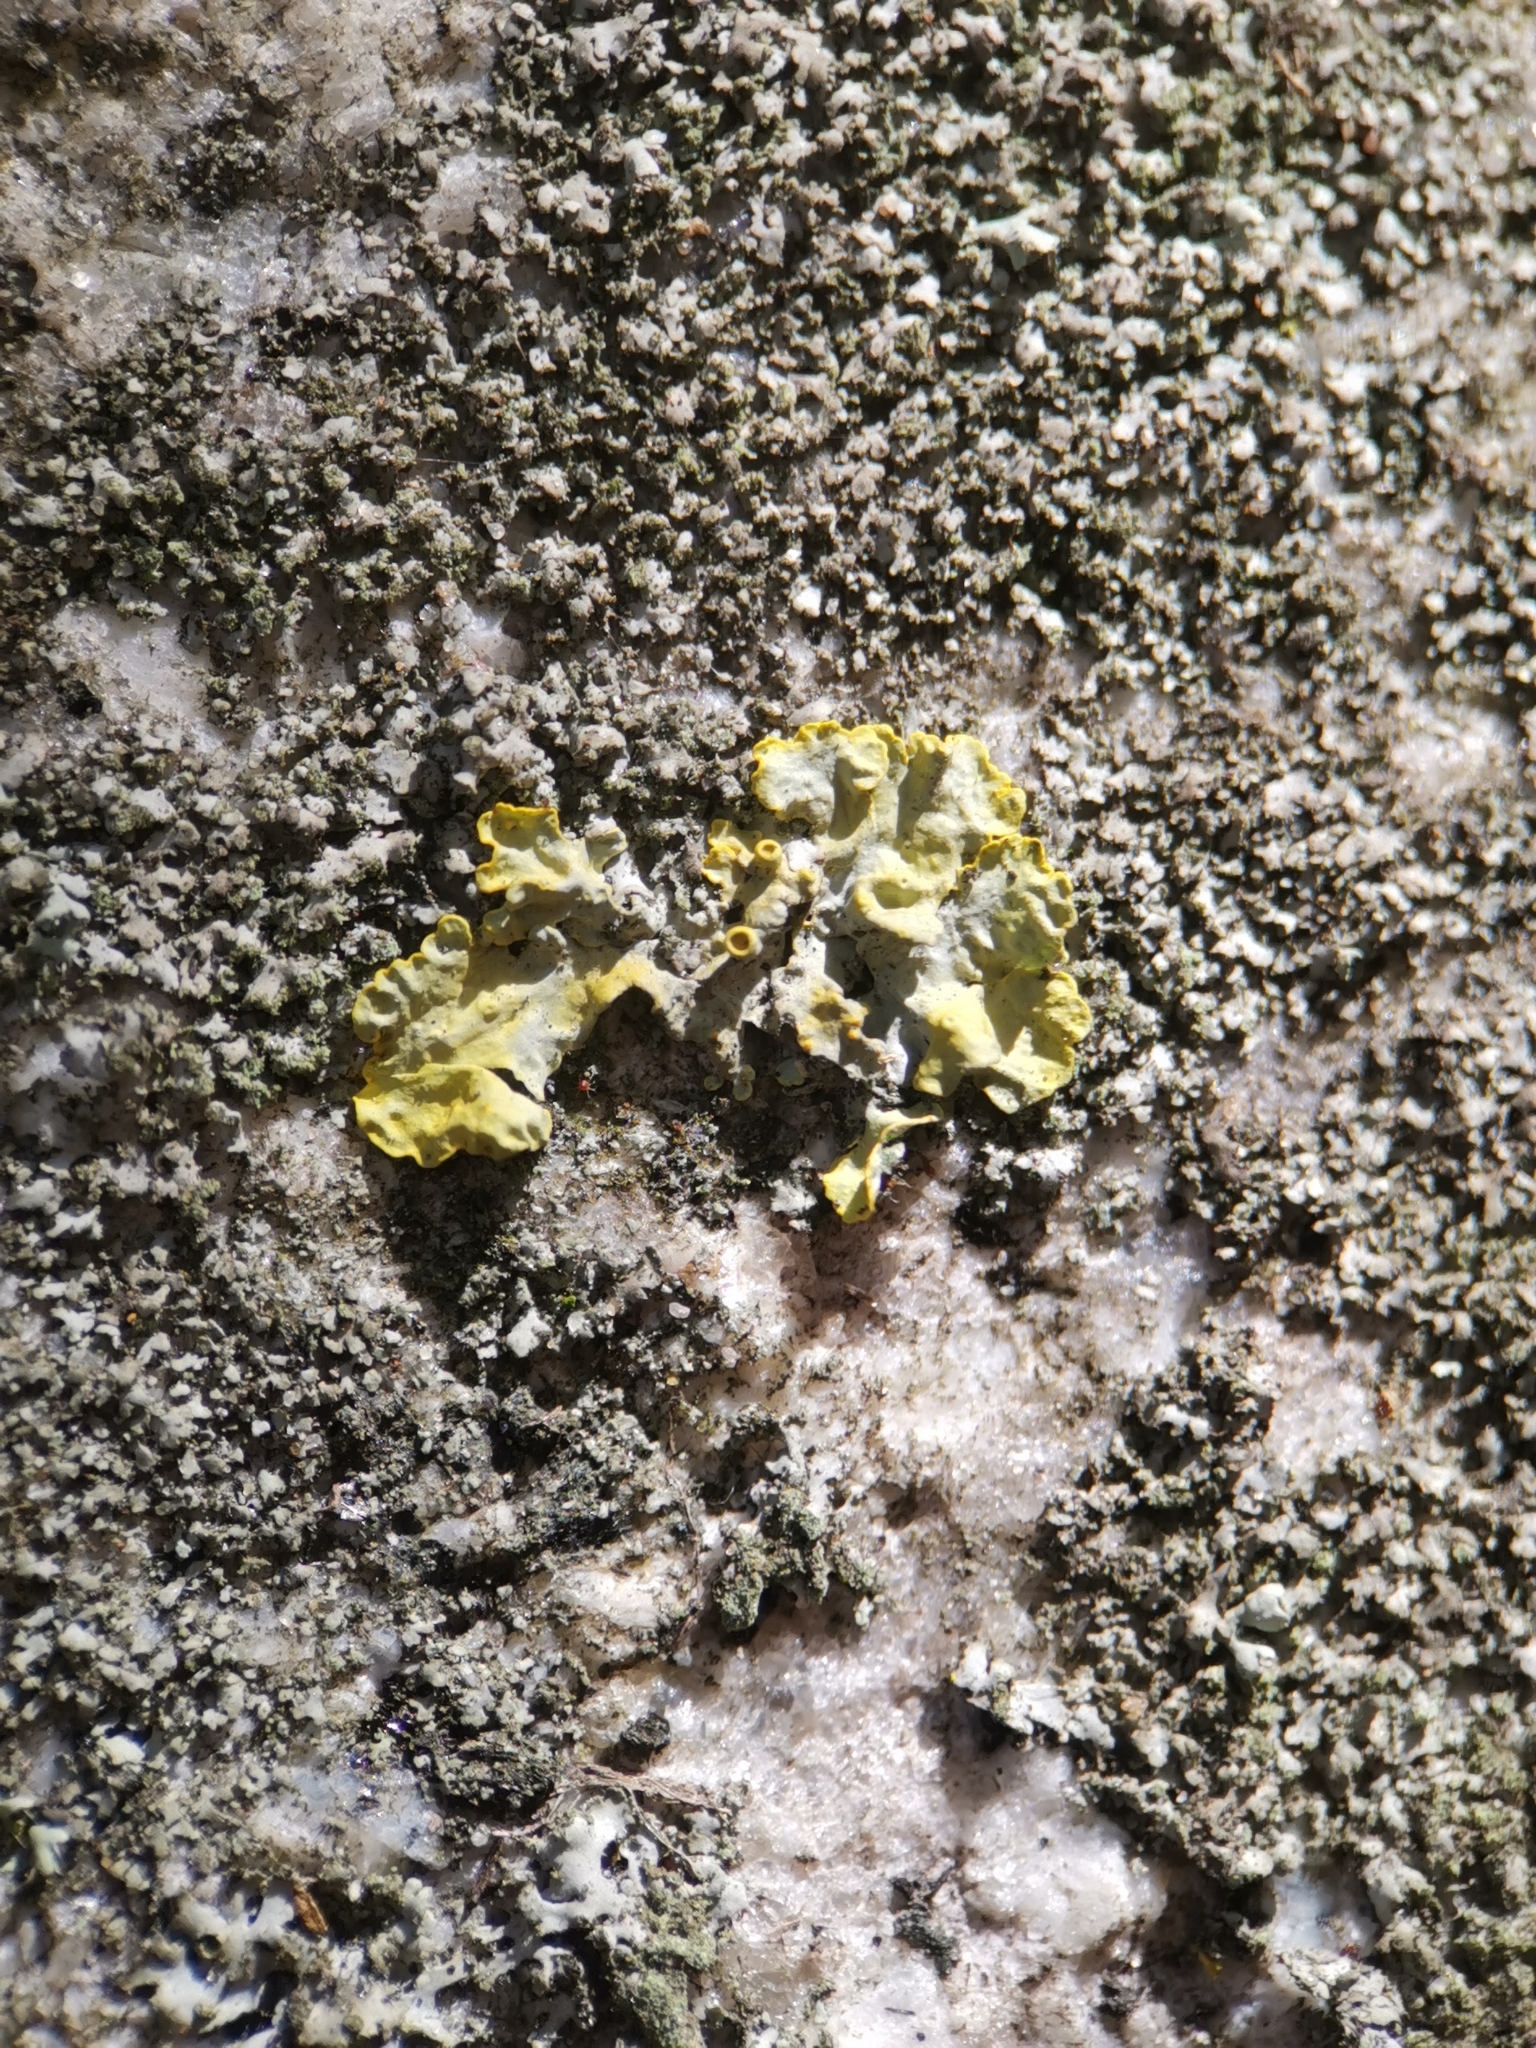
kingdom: Fungi
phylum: Ascomycota
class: Lecanoromycetes
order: Teloschistales
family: Teloschistaceae
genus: Xanthoria
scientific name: Xanthoria parietina
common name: Common orange lichen
